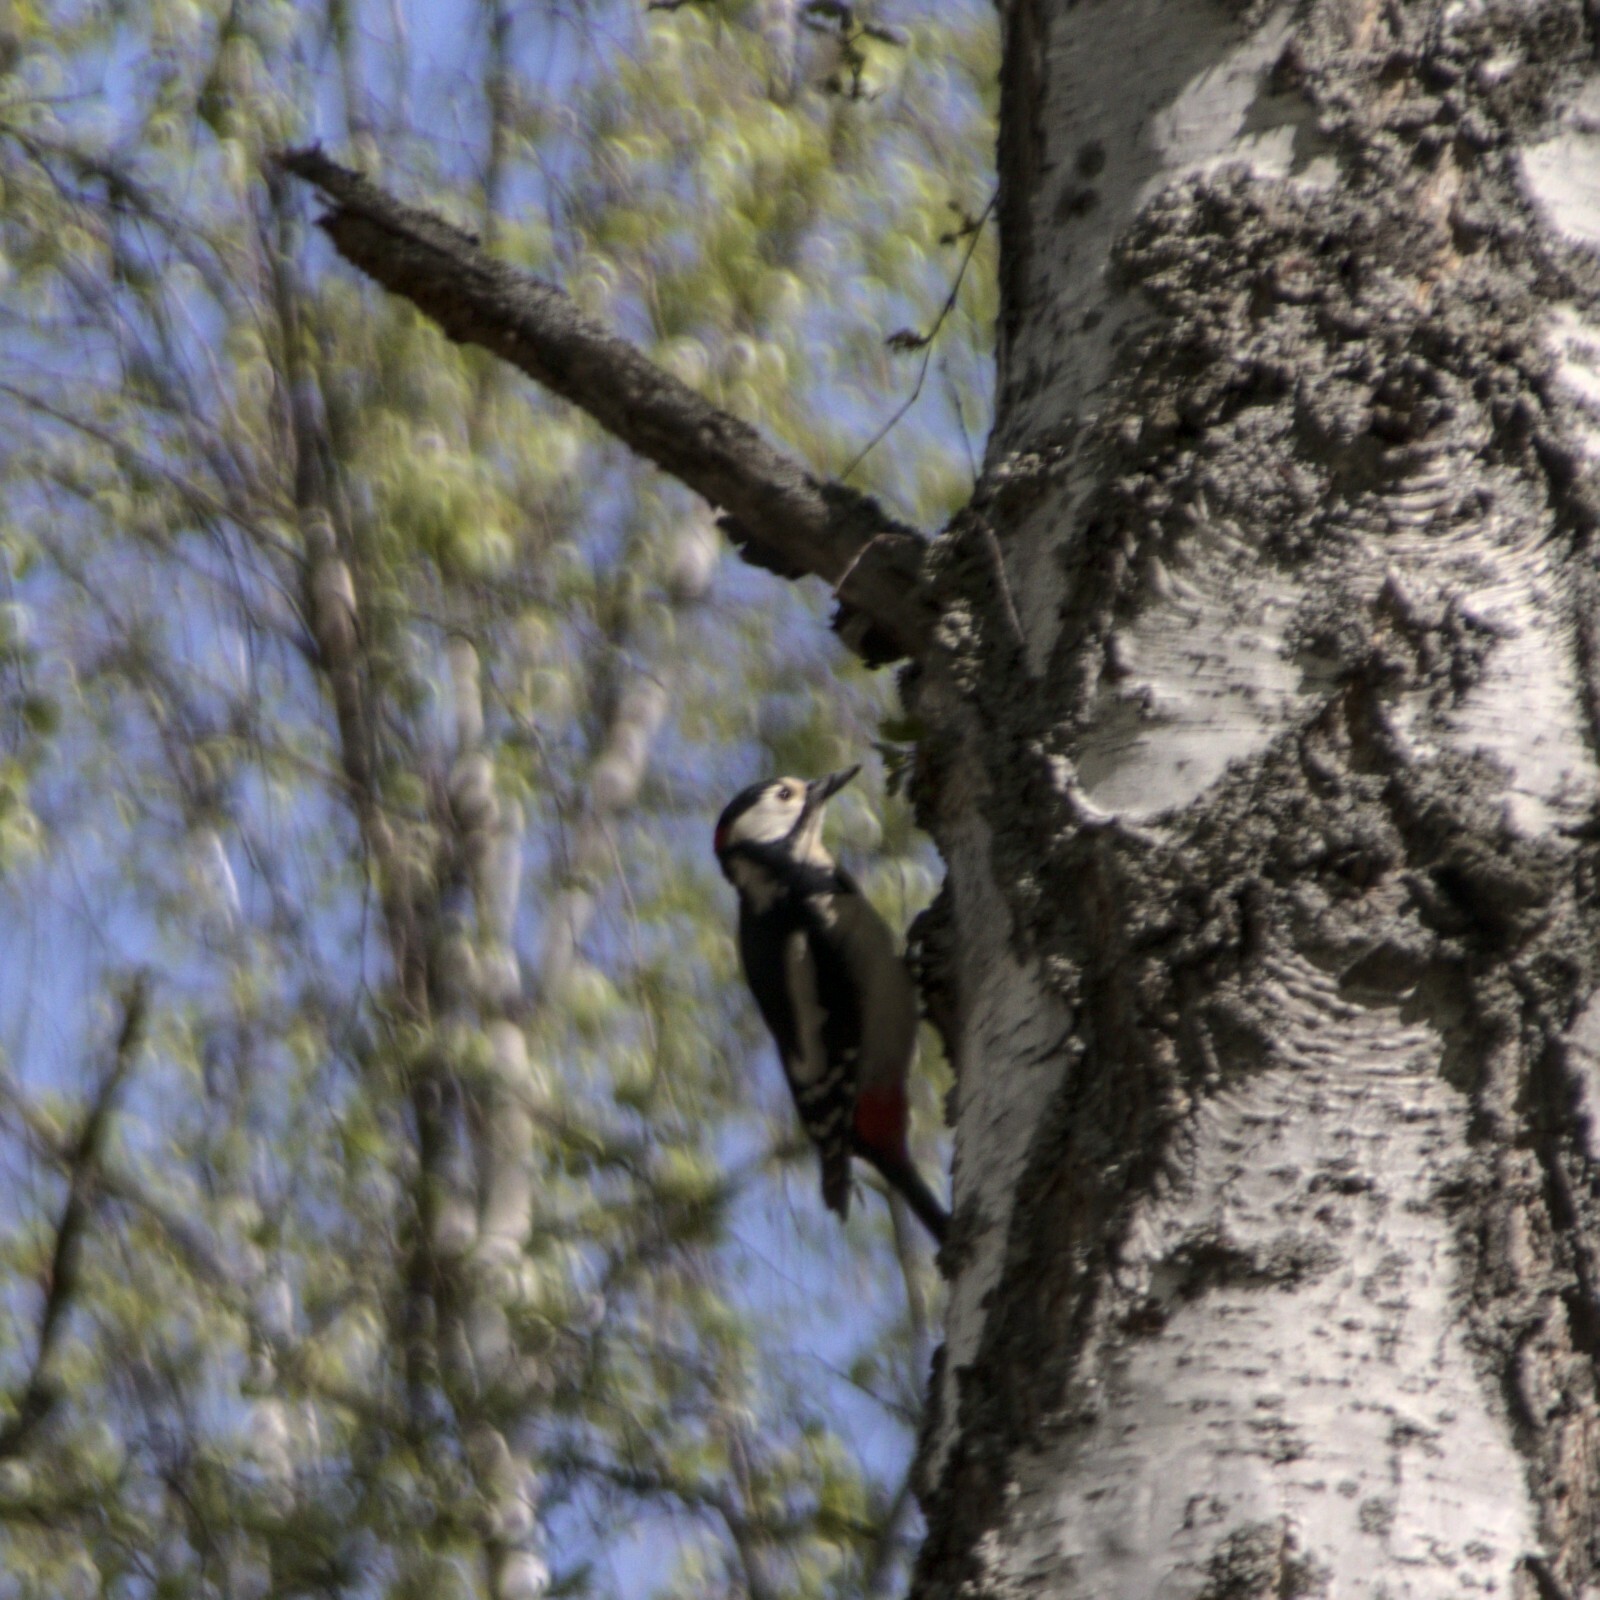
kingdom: Animalia
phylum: Chordata
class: Aves
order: Piciformes
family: Picidae
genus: Dendrocopos
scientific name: Dendrocopos major
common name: Great spotted woodpecker
